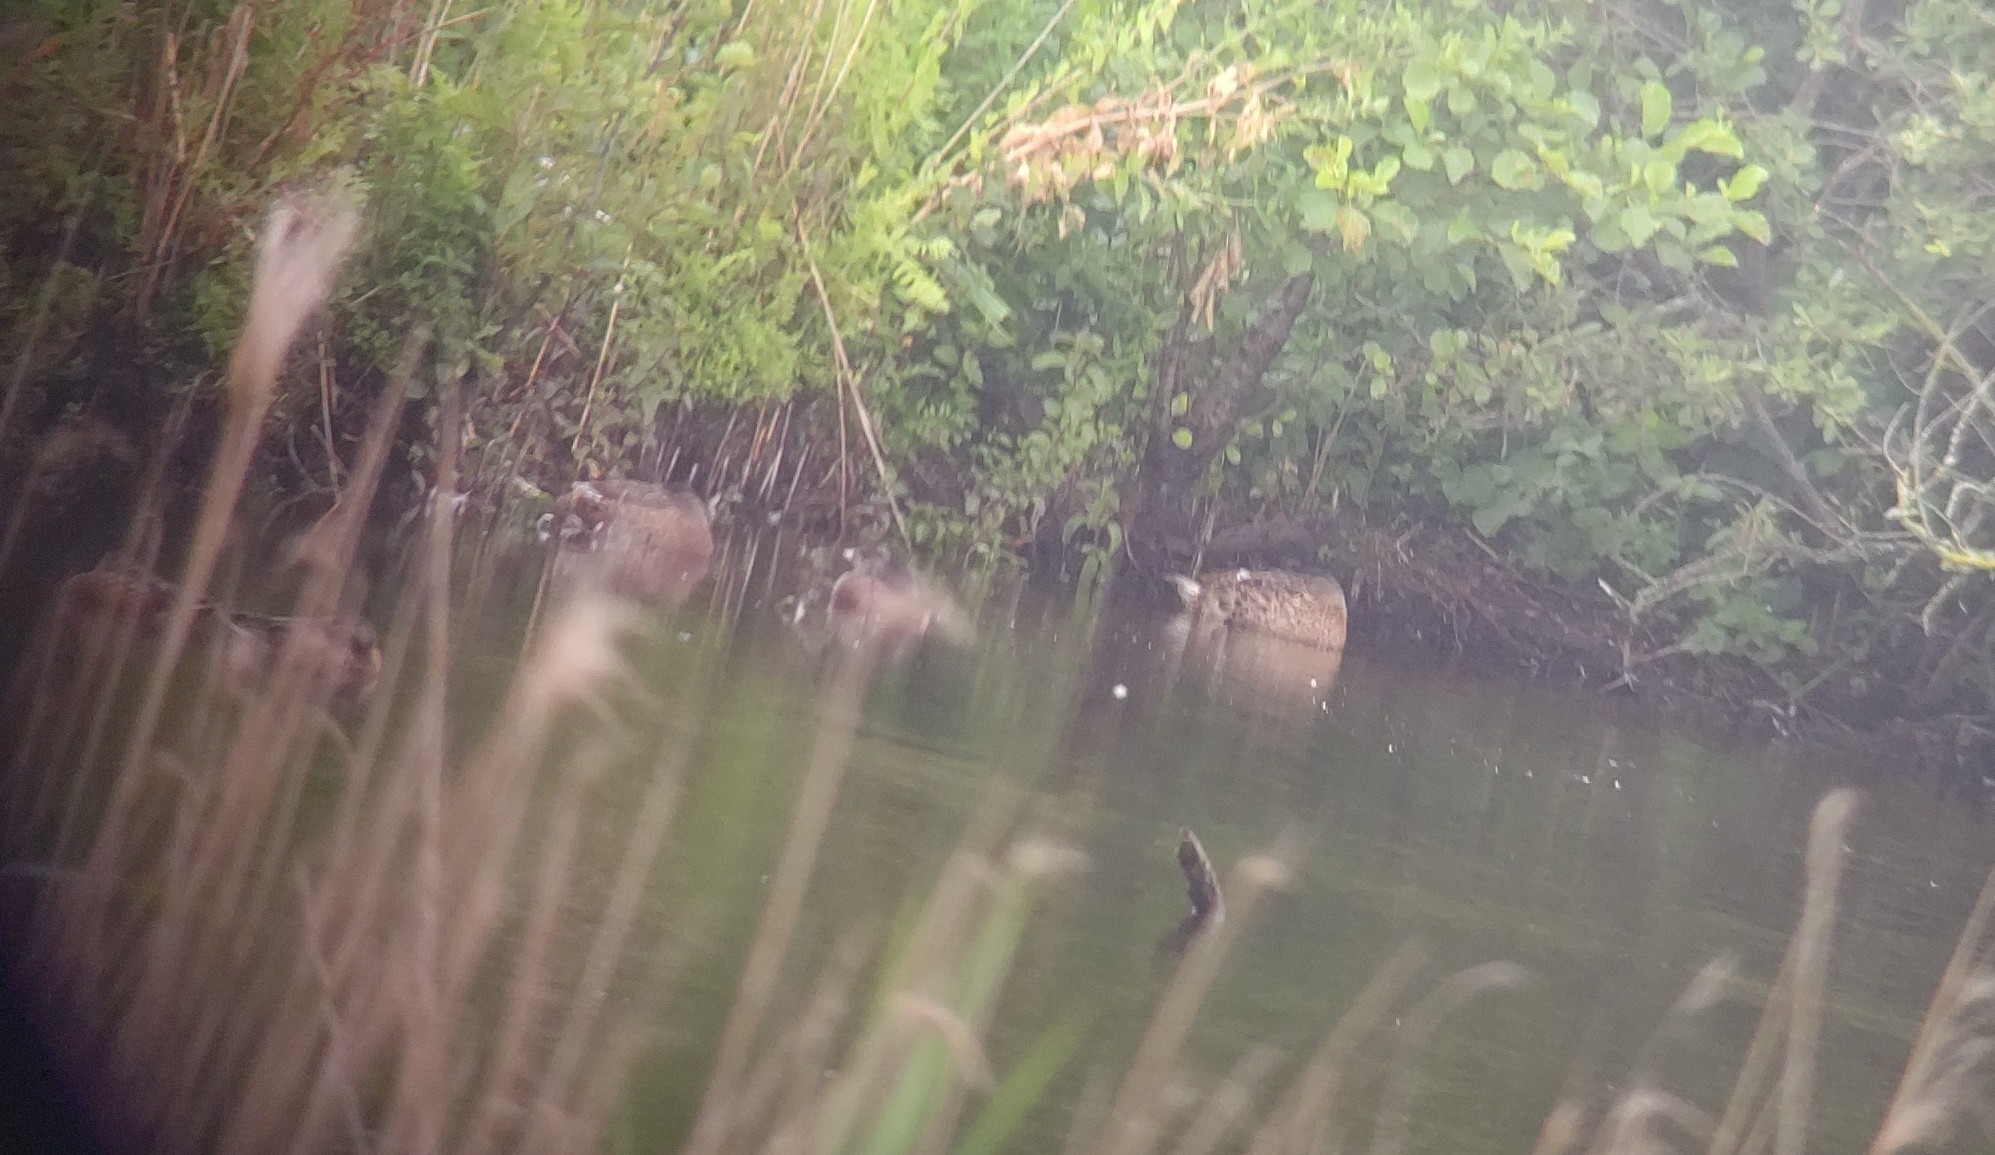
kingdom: Animalia
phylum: Chordata
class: Aves
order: Anseriformes
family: Anatidae
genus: Anas
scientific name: Anas platyrhynchos
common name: Mallard
